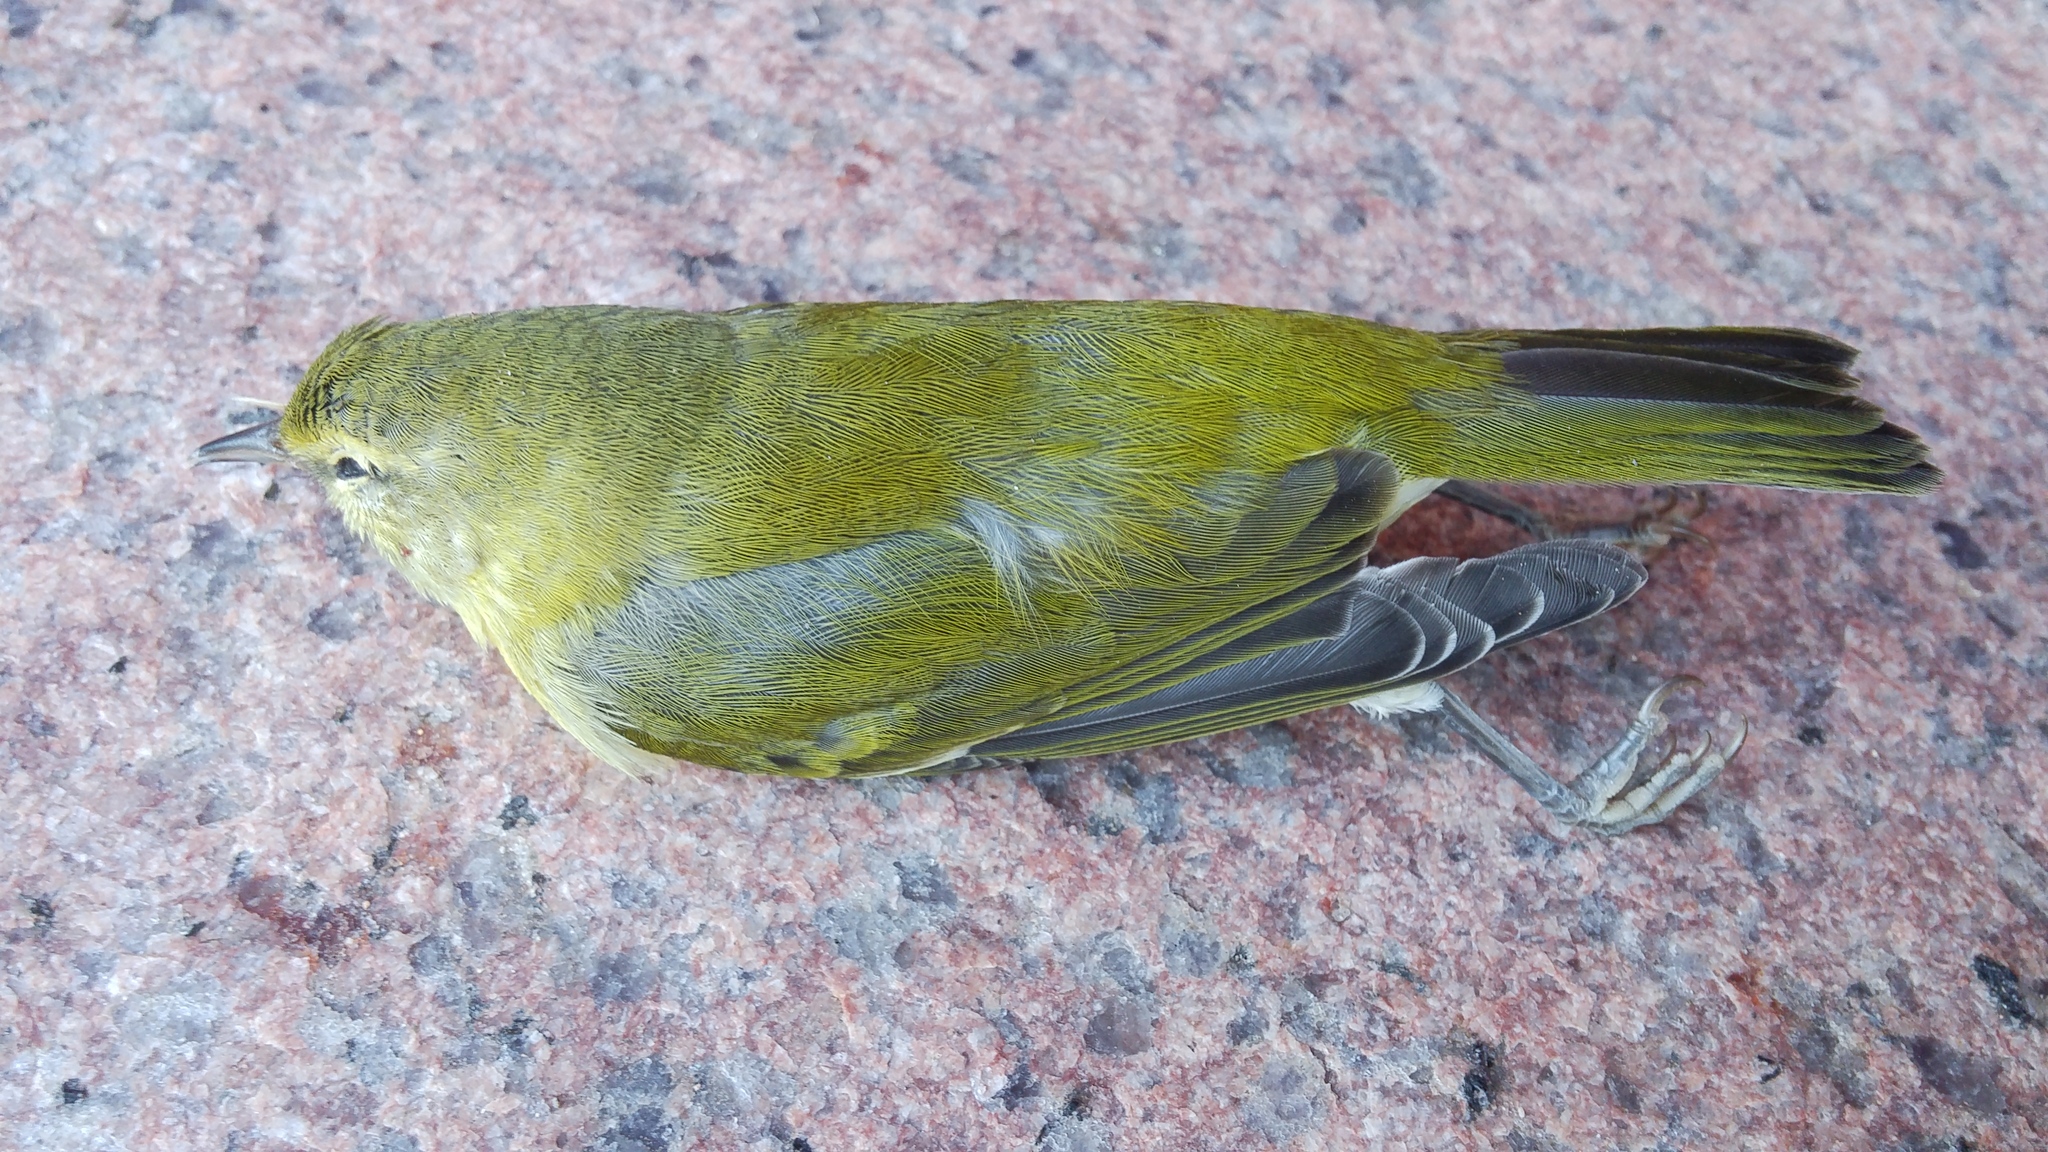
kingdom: Animalia
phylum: Chordata
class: Aves
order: Passeriformes
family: Parulidae
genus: Leiothlypis
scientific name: Leiothlypis peregrina
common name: Tennessee warbler
